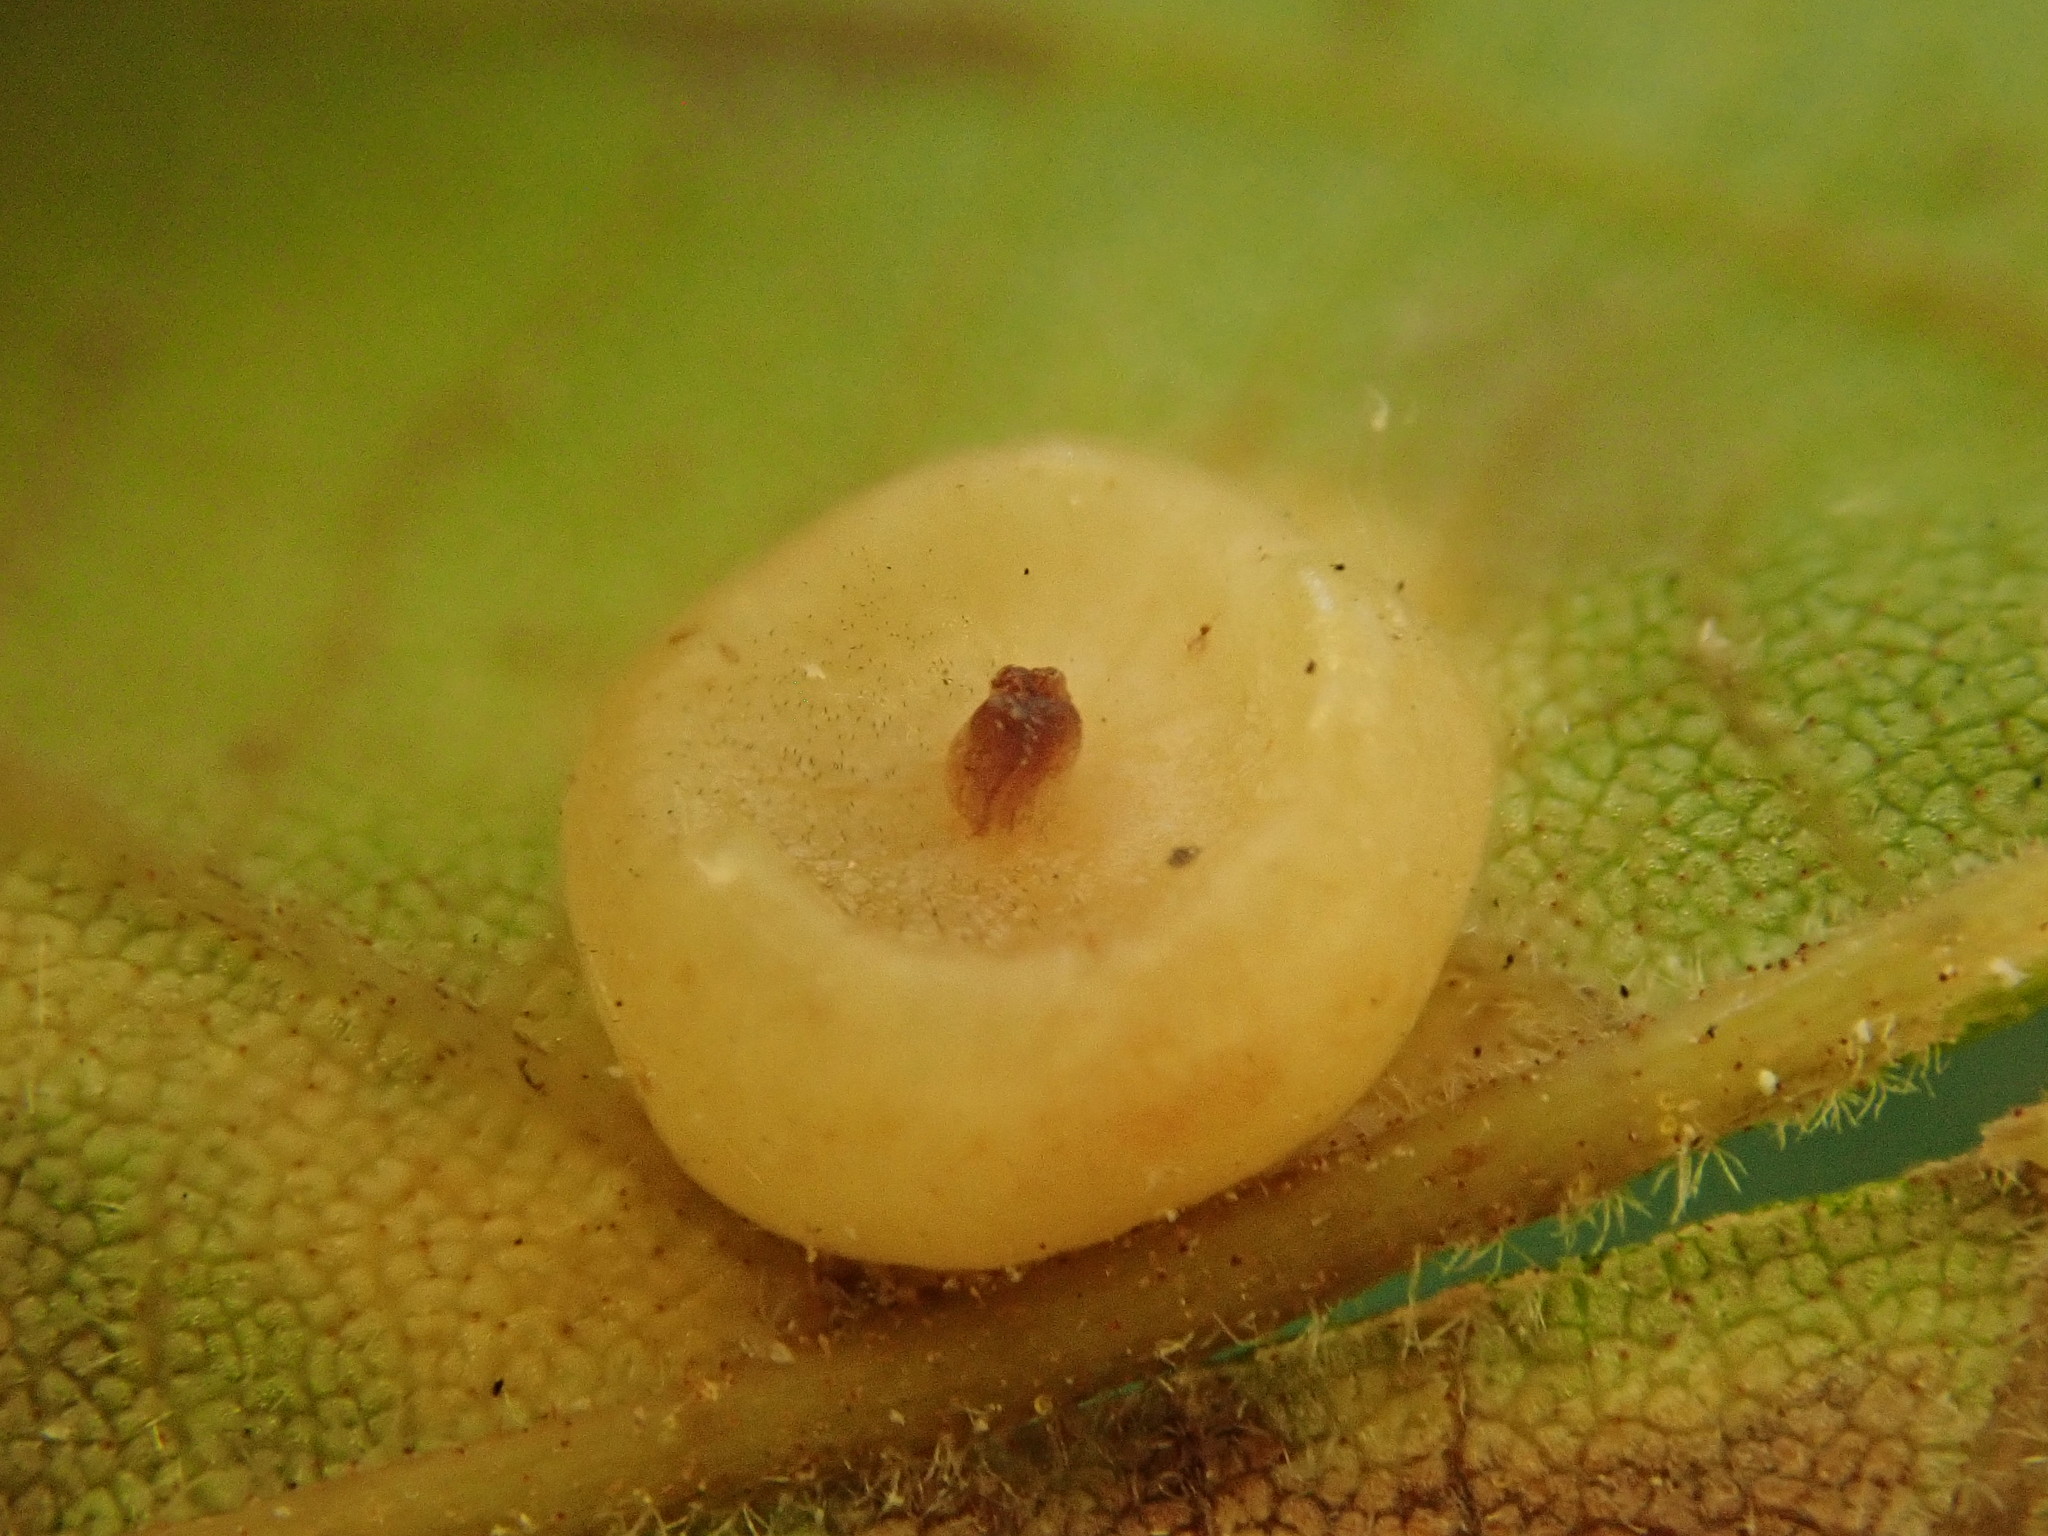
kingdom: Animalia
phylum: Arthropoda
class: Insecta
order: Diptera
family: Cecidomyiidae
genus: Caryomyia
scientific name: Caryomyia biretta
